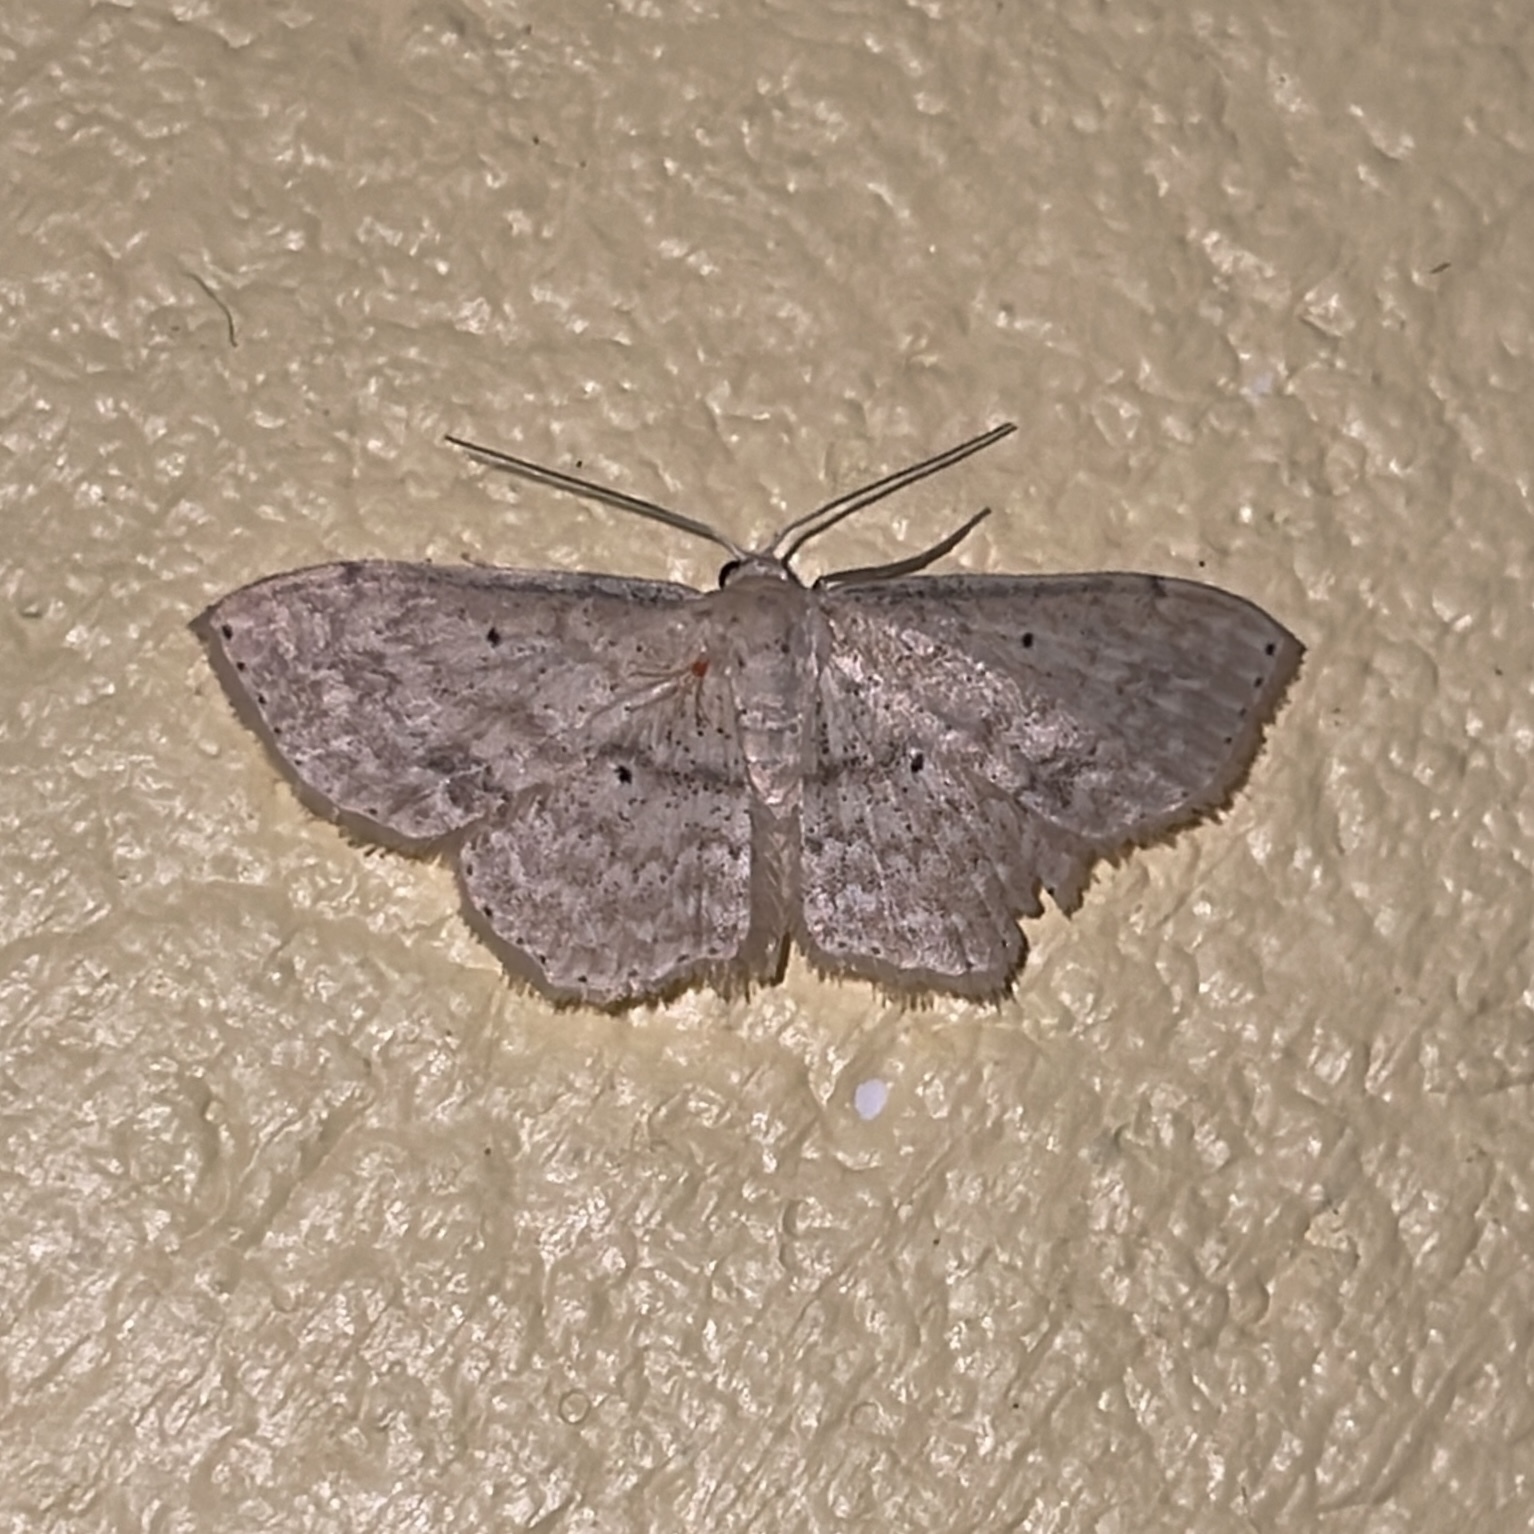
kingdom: Animalia
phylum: Arthropoda
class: Insecta
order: Lepidoptera
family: Geometridae
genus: Scopula
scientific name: Scopula apparitaria
